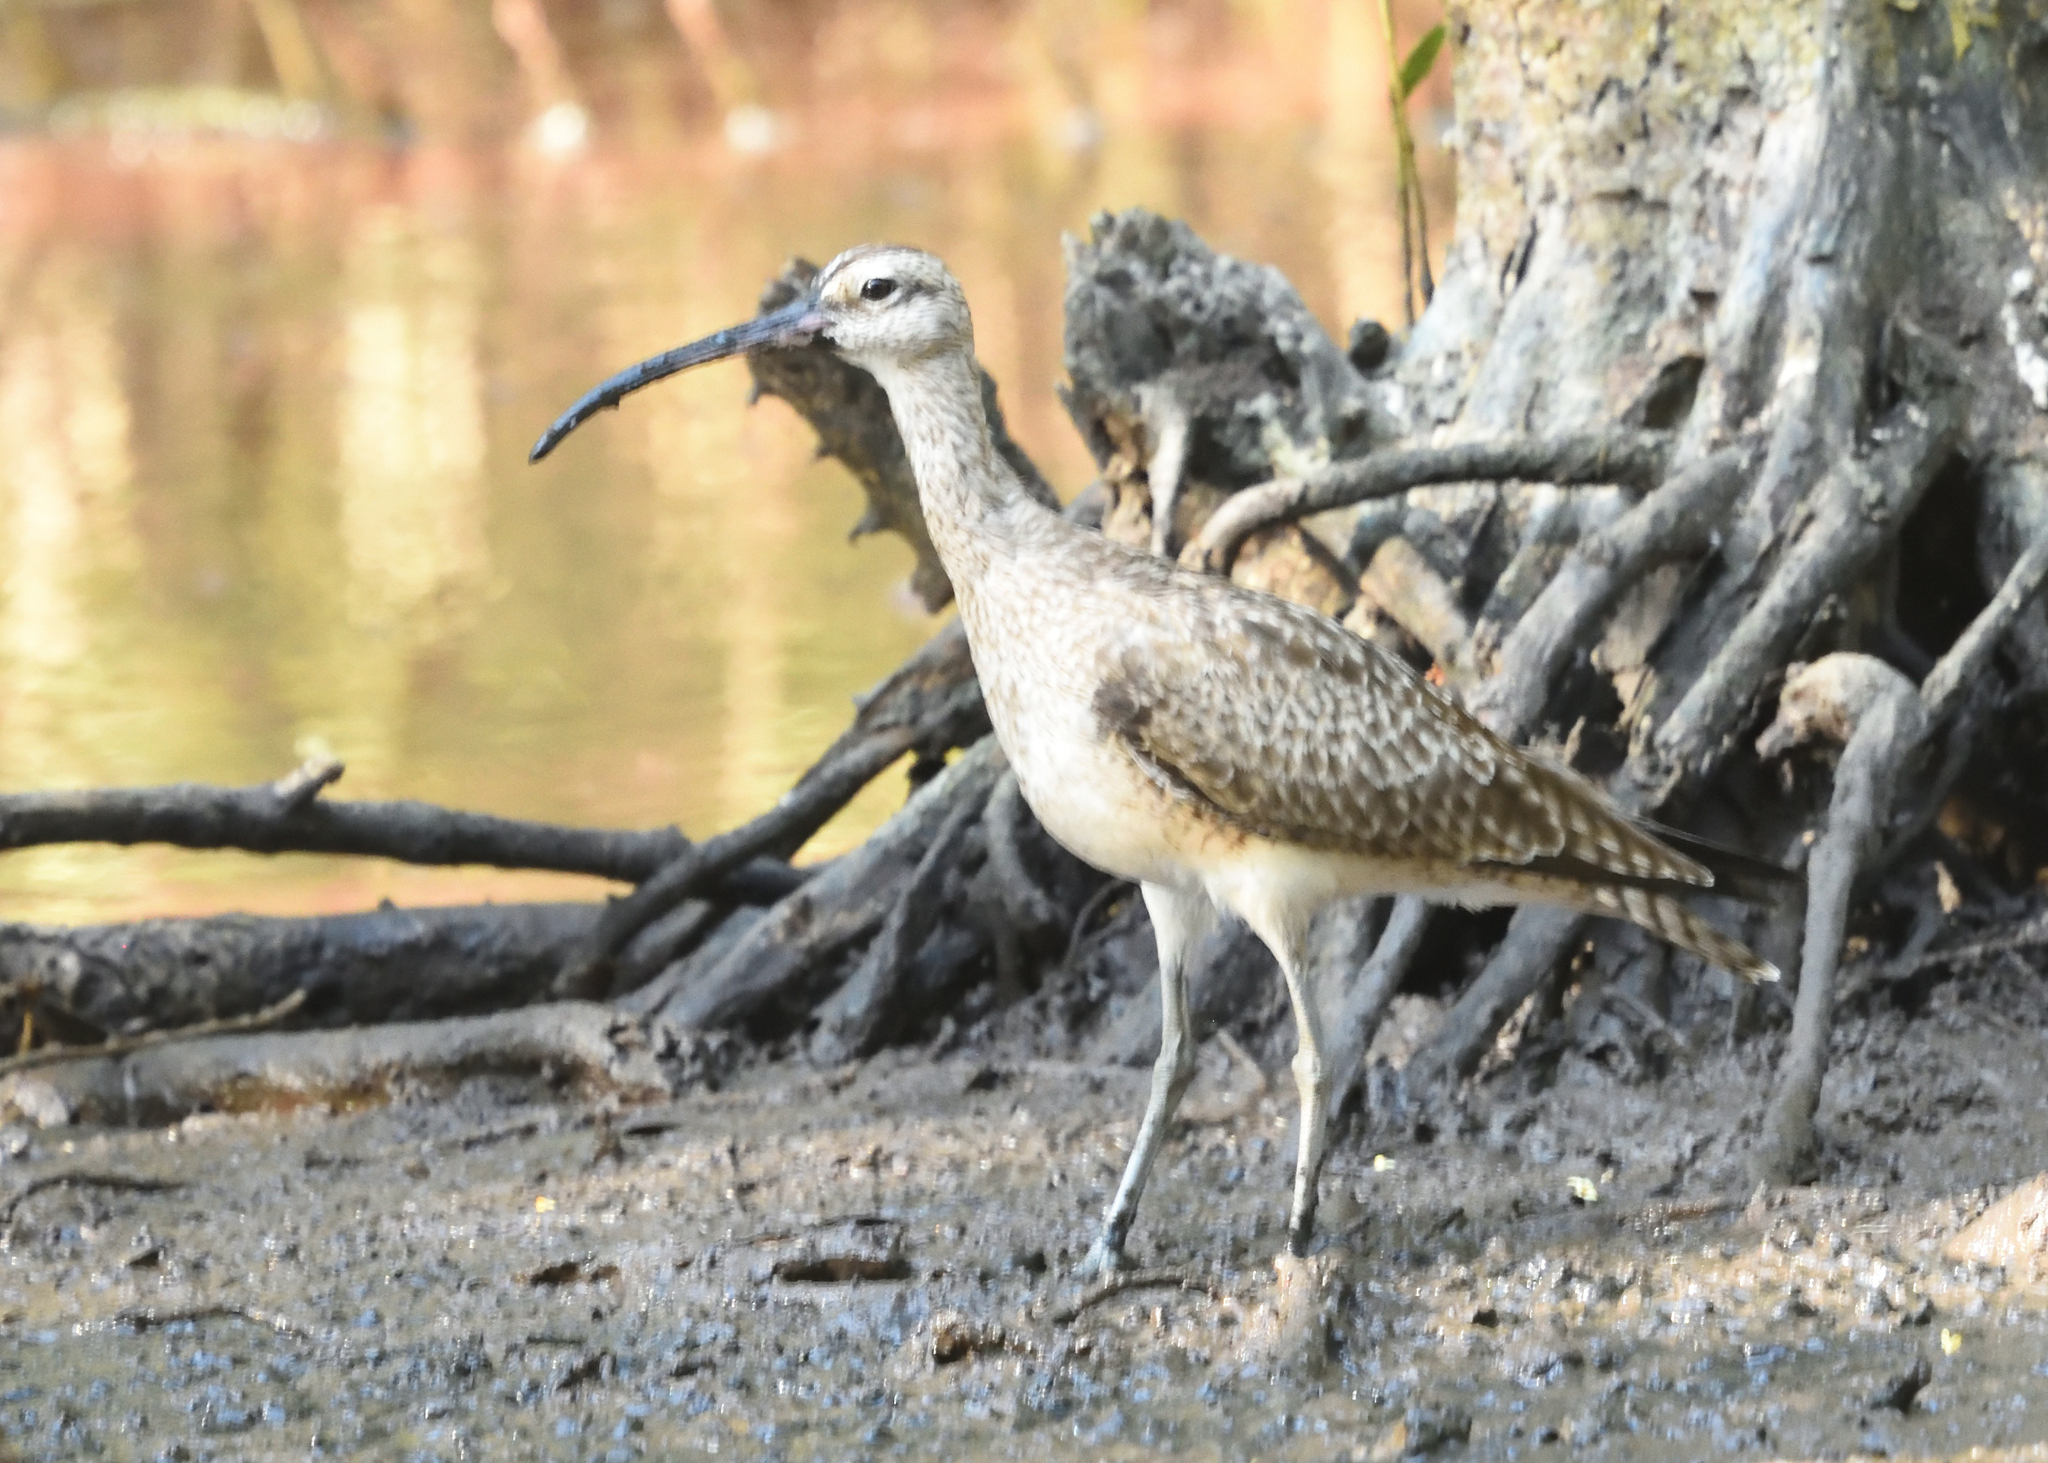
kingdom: Animalia
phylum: Chordata
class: Aves
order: Charadriiformes
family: Scolopacidae
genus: Numenius
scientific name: Numenius phaeopus
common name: Whimbrel
